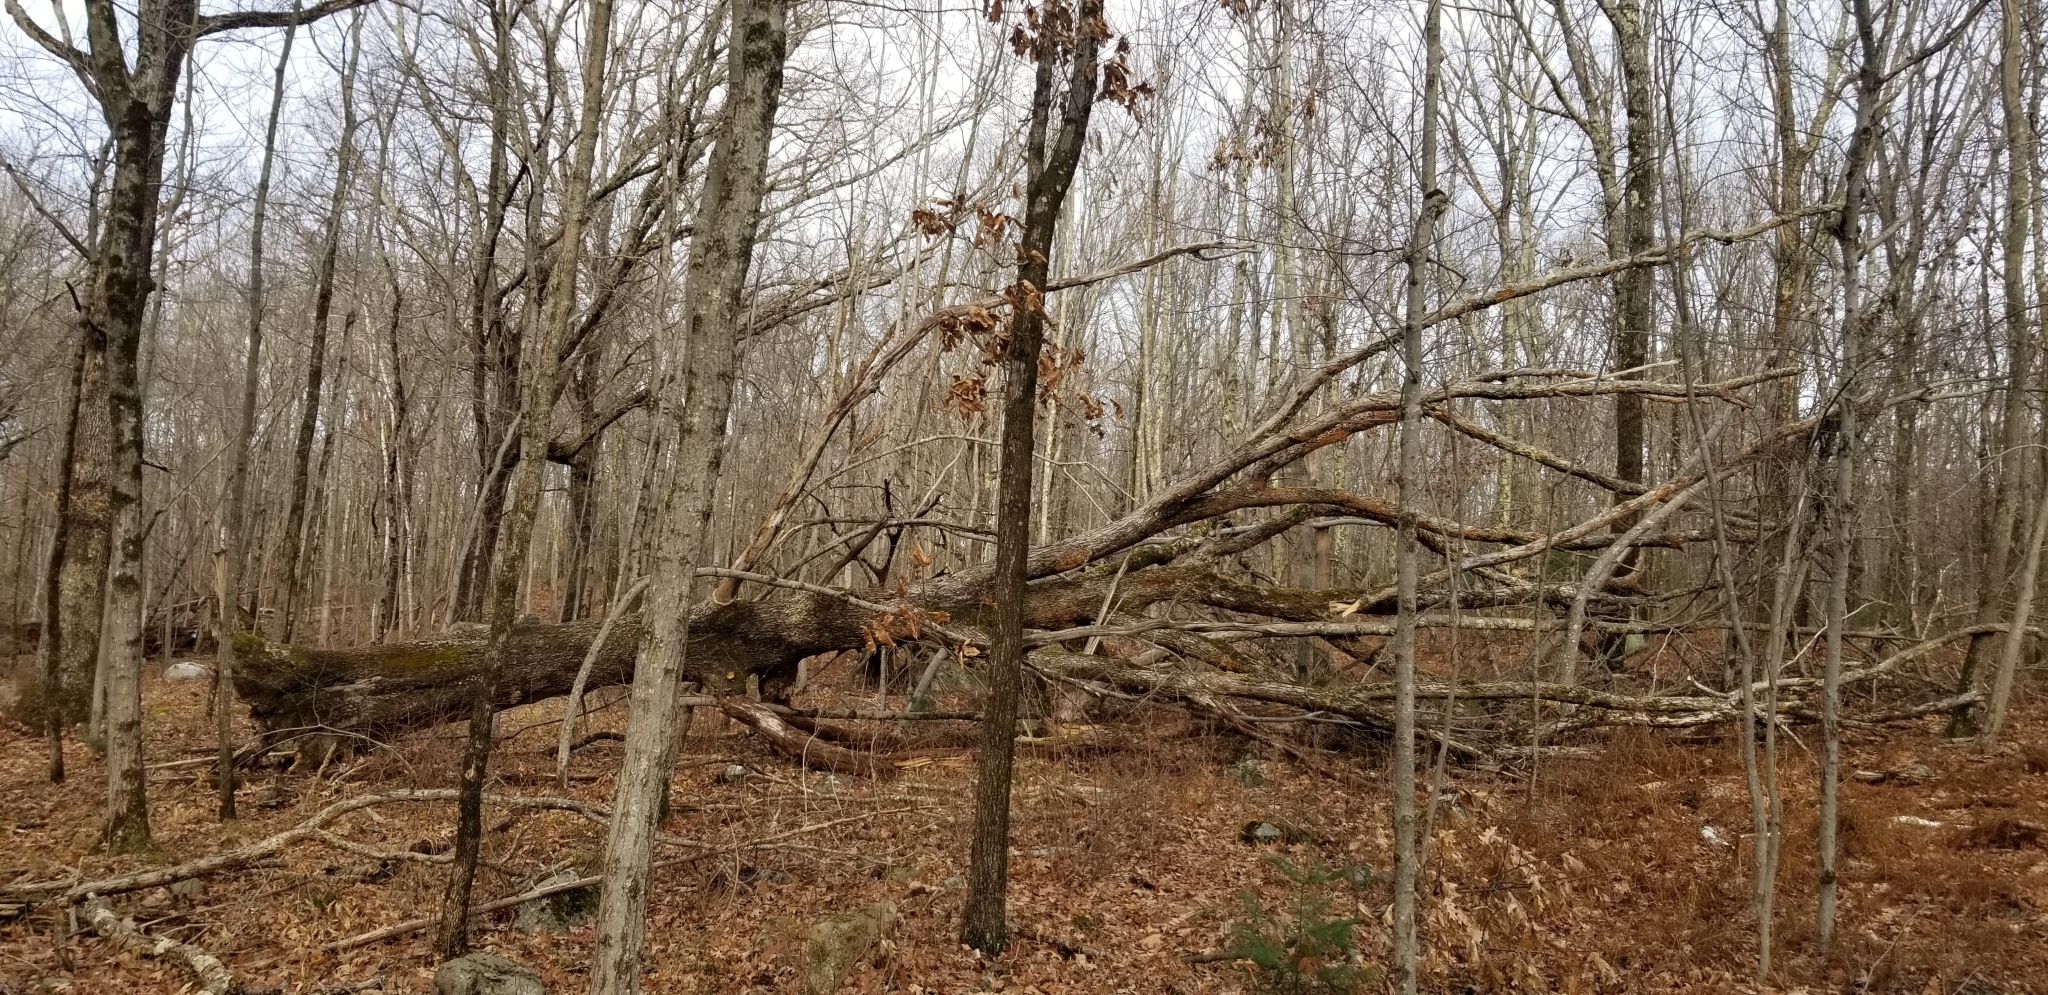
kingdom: Plantae
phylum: Tracheophyta
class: Magnoliopsida
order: Fagales
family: Fagaceae
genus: Quercus
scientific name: Quercus alba
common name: White oak
